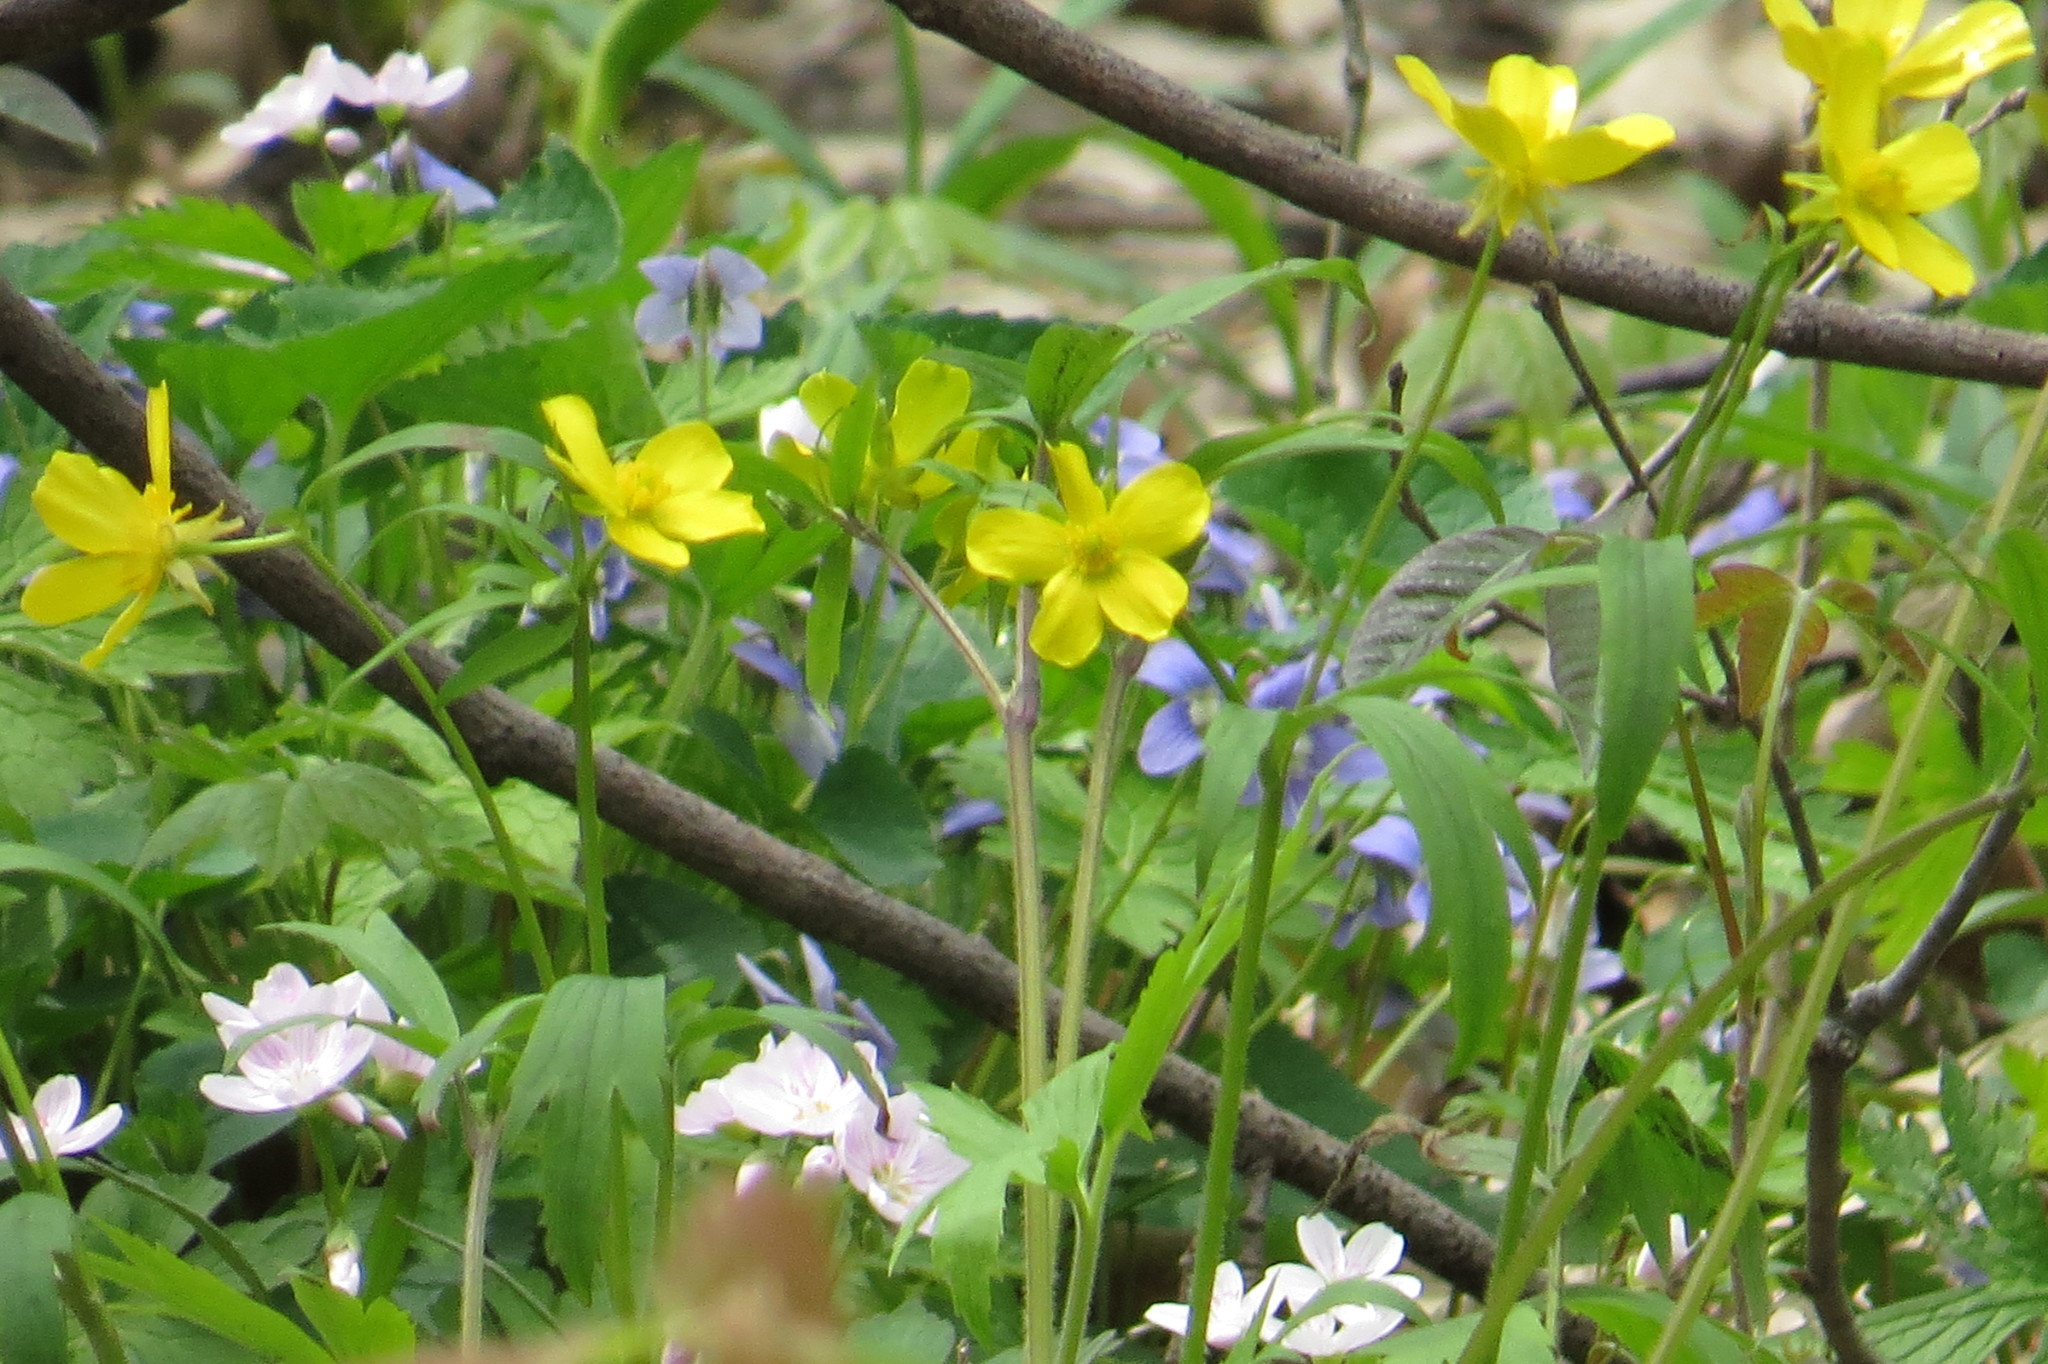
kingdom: Plantae
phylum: Tracheophyta
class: Magnoliopsida
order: Ranunculales
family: Ranunculaceae
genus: Ranunculus
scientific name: Ranunculus hispidus
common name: Bristly buttercup
